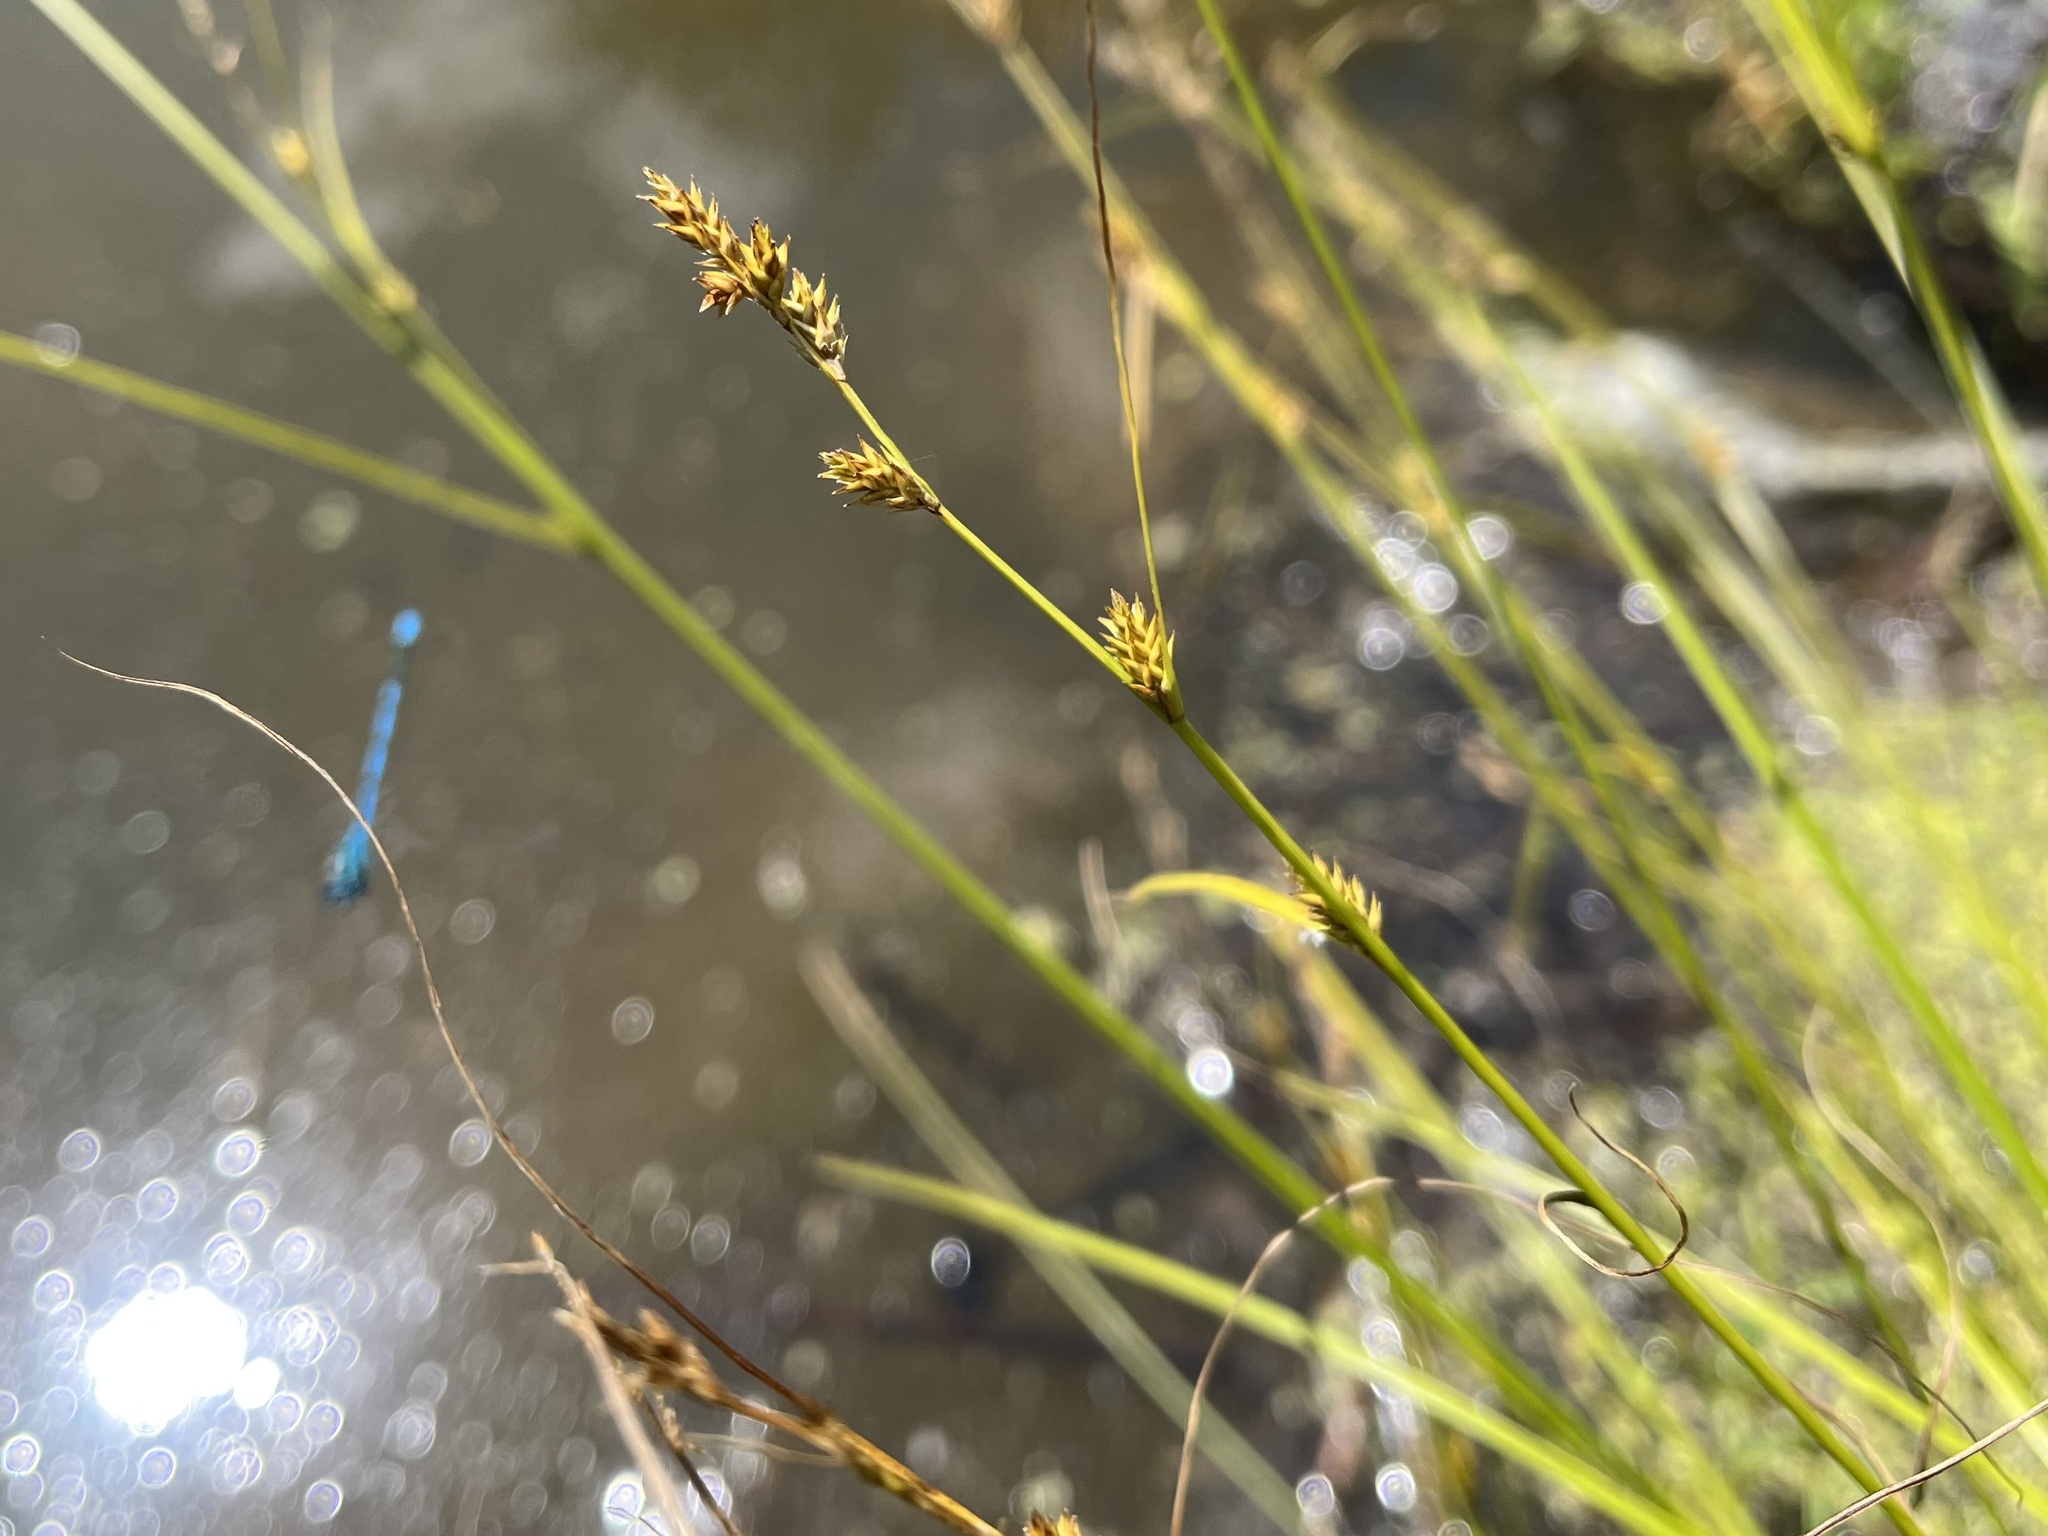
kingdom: Plantae
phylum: Tracheophyta
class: Liliopsida
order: Poales
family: Cyperaceae
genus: Carex
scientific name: Carex remota
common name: Remote sedge
